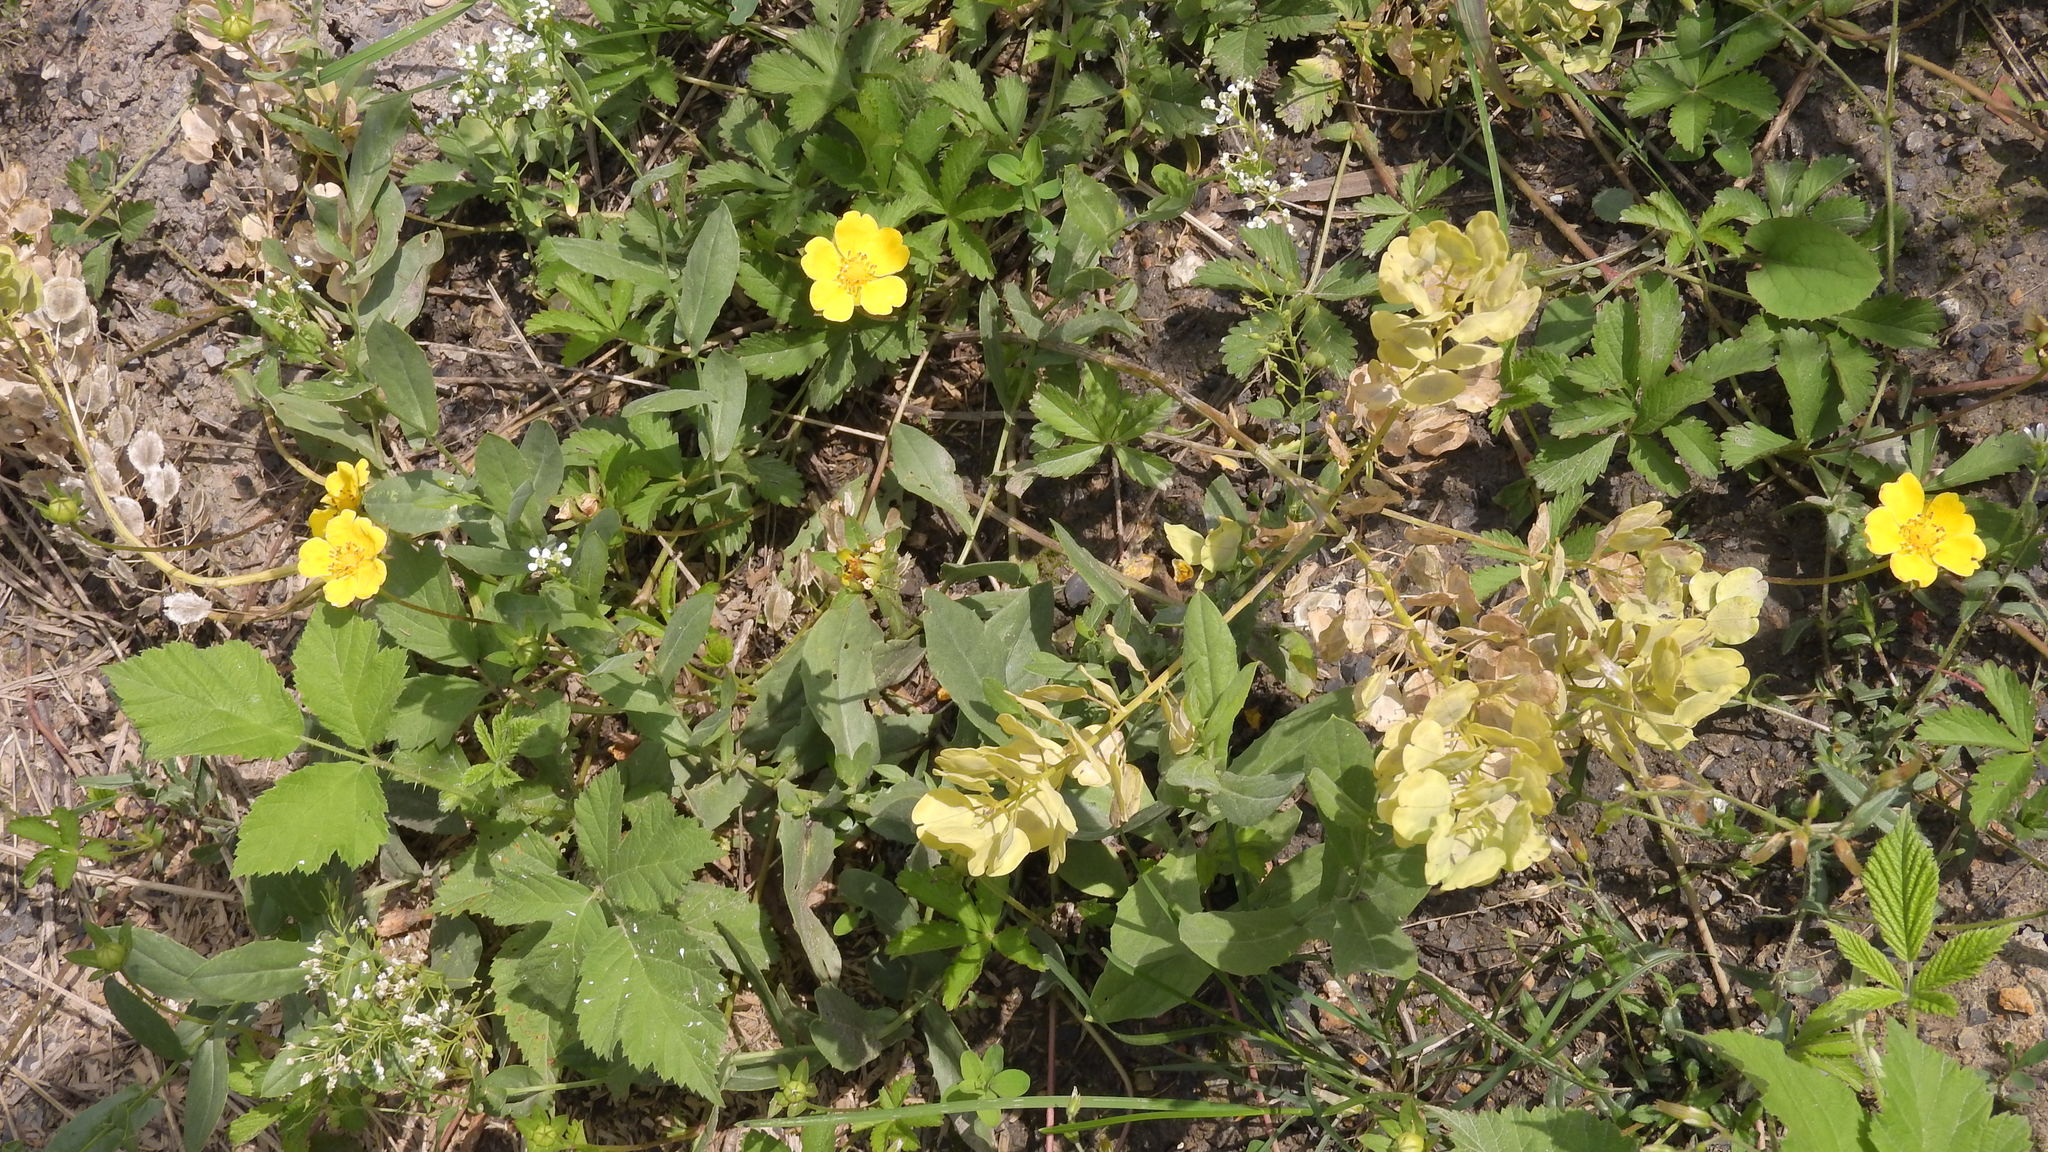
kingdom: Plantae
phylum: Tracheophyta
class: Magnoliopsida
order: Brassicales
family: Brassicaceae
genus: Thlaspi
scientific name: Thlaspi arvense
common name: Field pennycress
